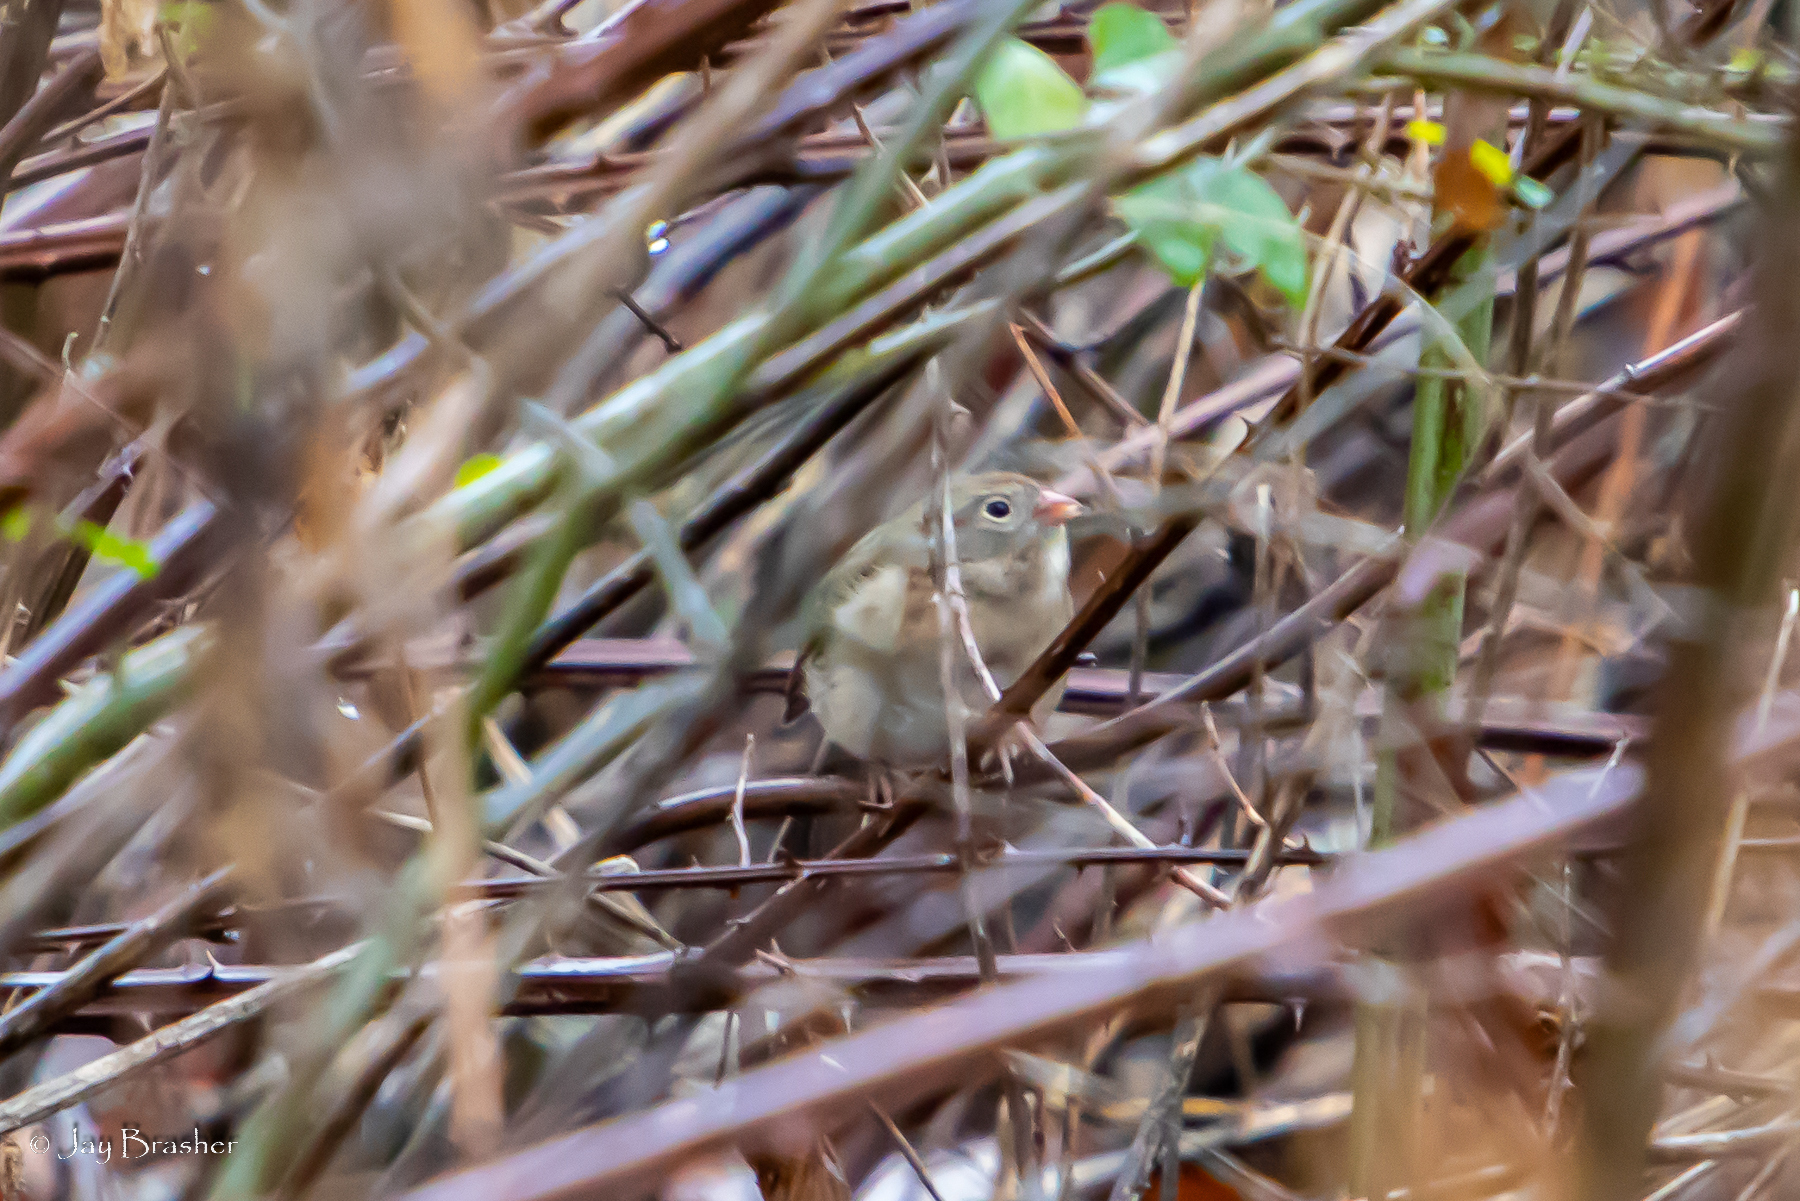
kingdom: Animalia
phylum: Chordata
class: Aves
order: Passeriformes
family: Passerellidae
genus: Spizella
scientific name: Spizella pusilla
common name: Field sparrow
